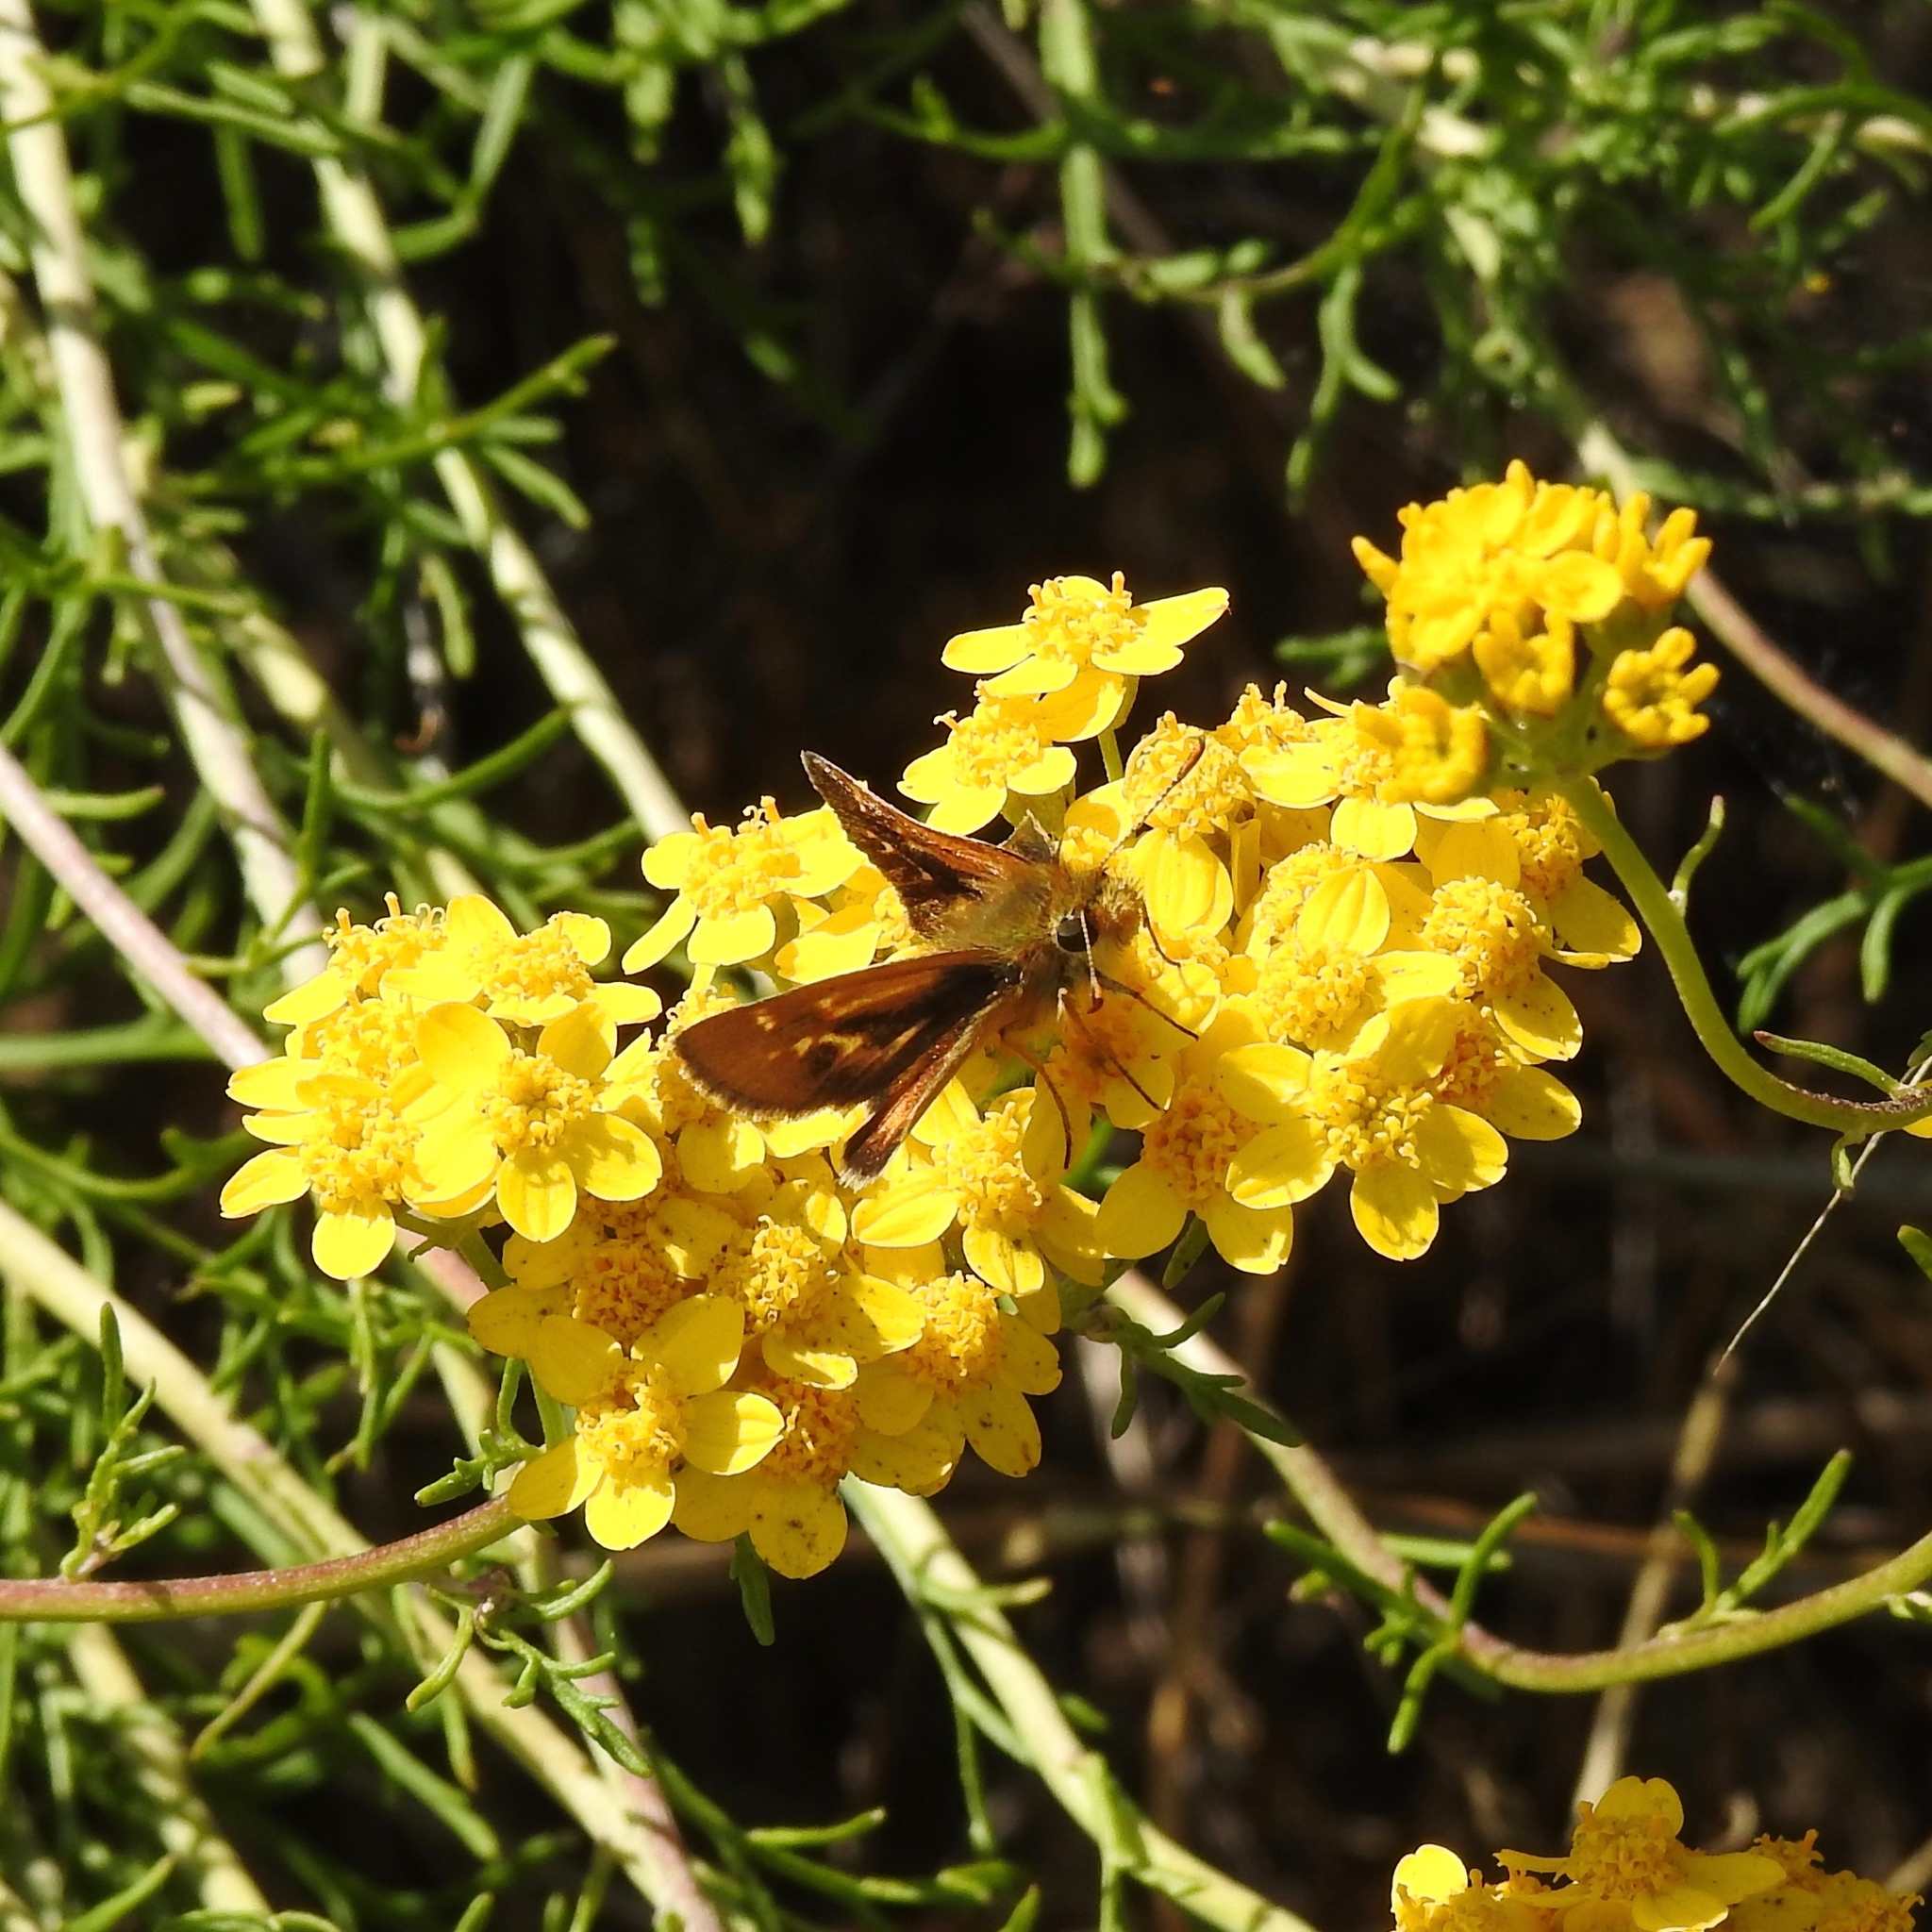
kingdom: Animalia
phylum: Arthropoda
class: Insecta
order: Lepidoptera
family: Hesperiidae
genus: Ochlodes
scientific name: Ochlodes agricola
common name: Rural skipper
